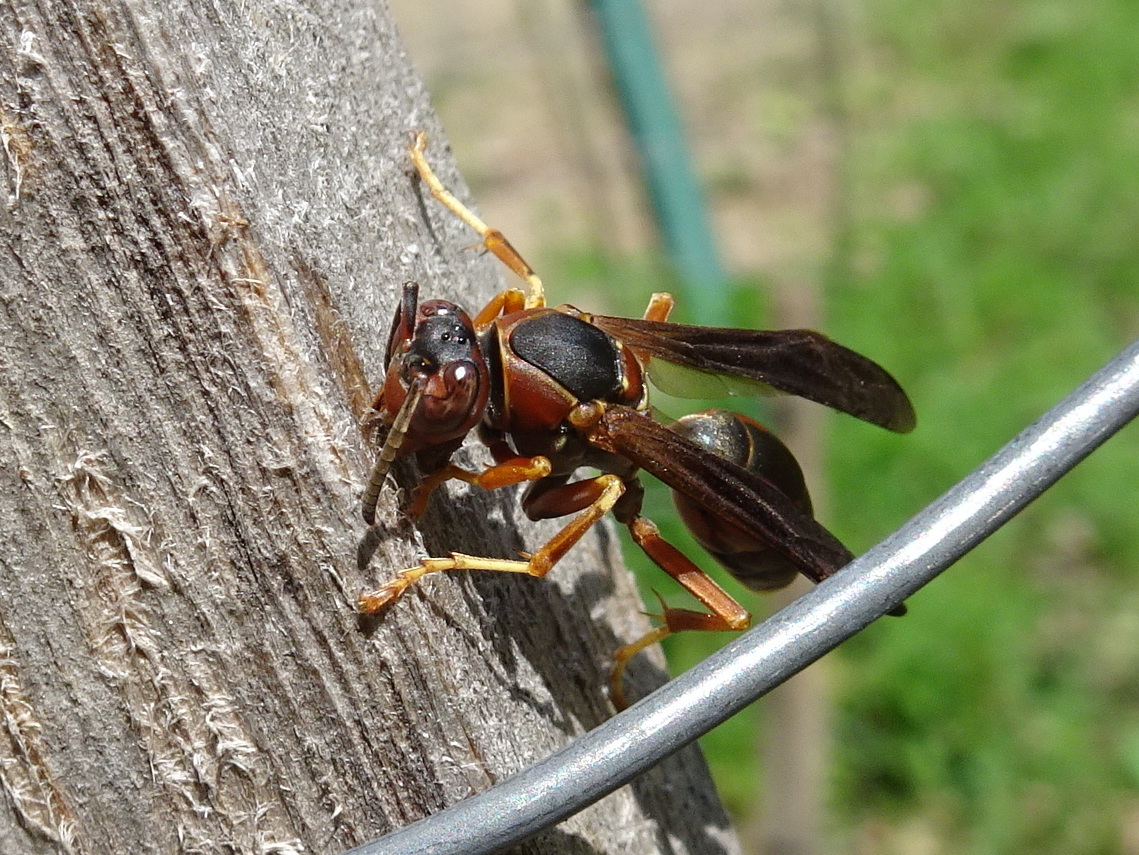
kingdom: Animalia
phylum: Arthropoda
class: Insecta
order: Hymenoptera
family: Eumenidae
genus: Polistes
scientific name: Polistes fuscatus
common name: Dark paper wasp
